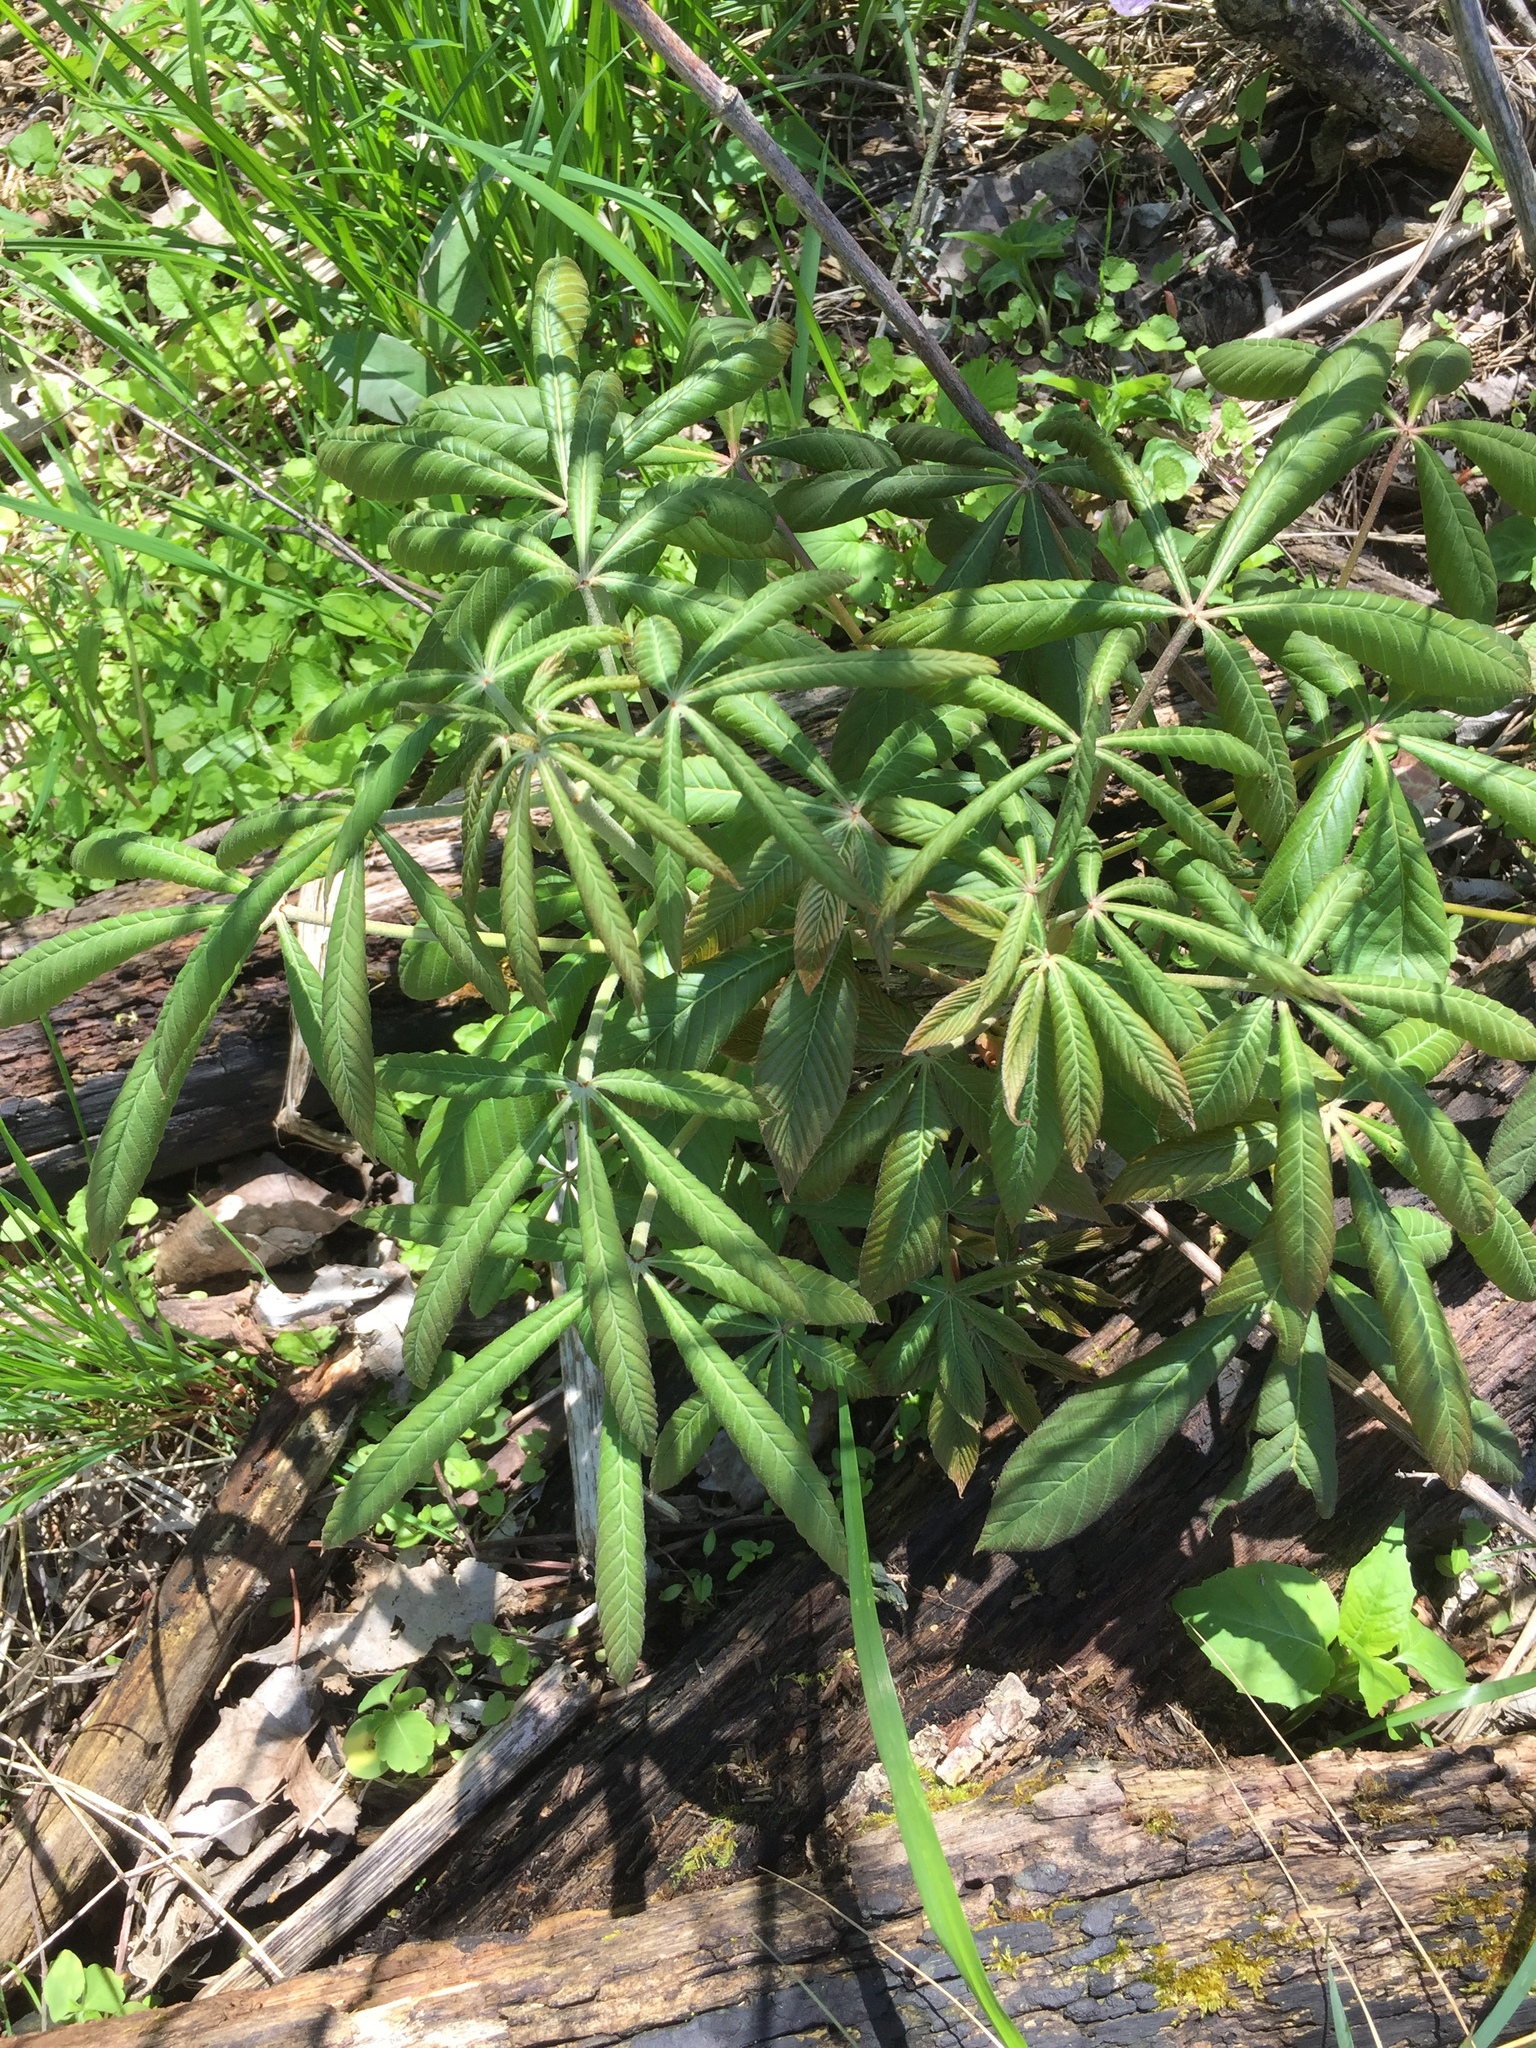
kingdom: Plantae
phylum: Tracheophyta
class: Magnoliopsida
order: Sapindales
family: Sapindaceae
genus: Aesculus
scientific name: Aesculus glabra
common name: Ohio buckeye
